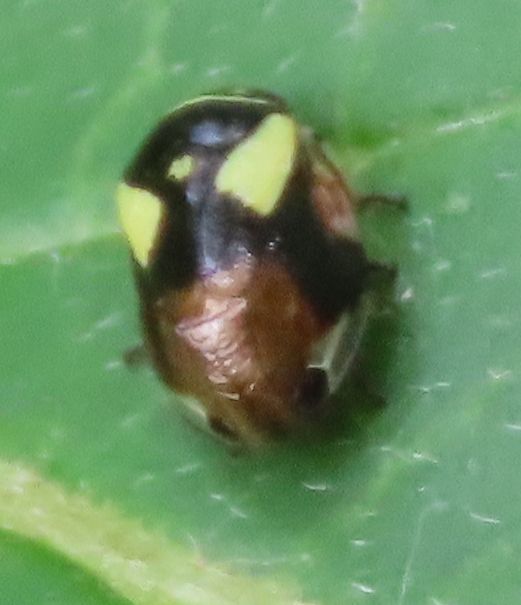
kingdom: Animalia
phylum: Arthropoda
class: Insecta
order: Hemiptera
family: Clastopteridae
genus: Clastoptera
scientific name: Clastoptera proteus
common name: Dogwood spittlebug
